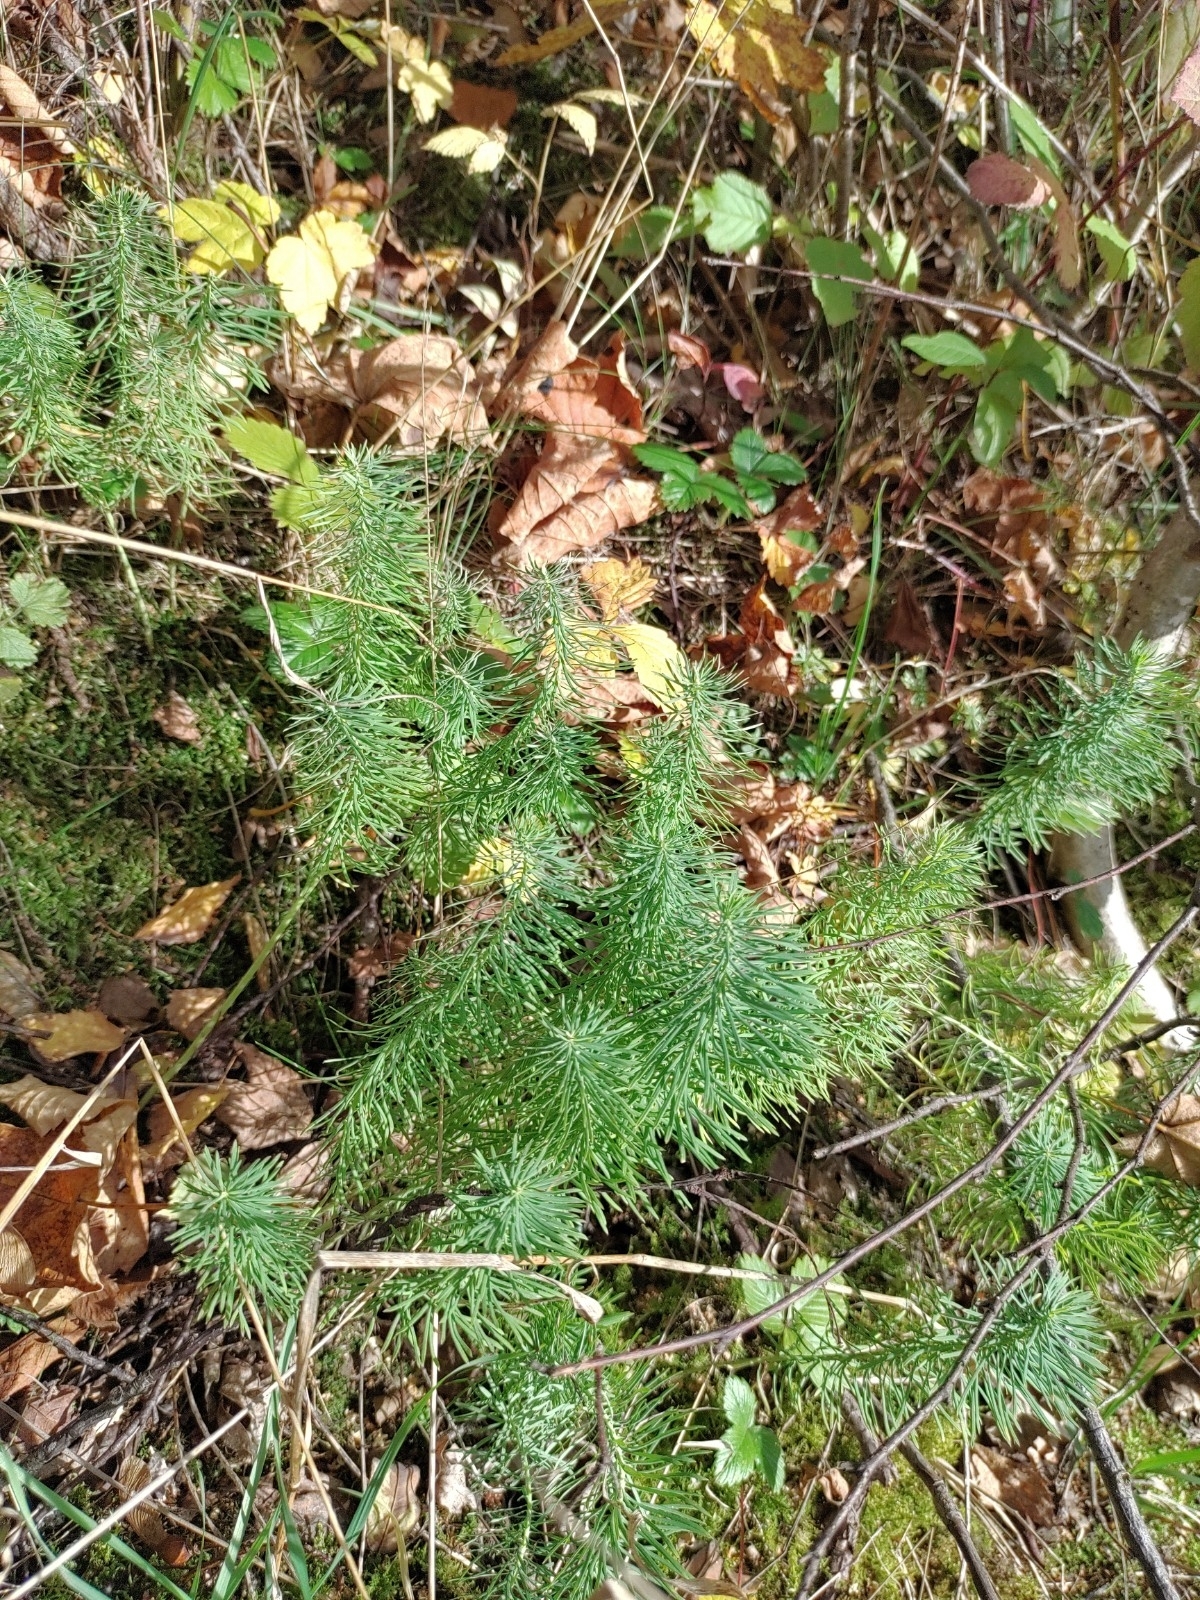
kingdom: Plantae
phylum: Tracheophyta
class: Magnoliopsida
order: Malpighiales
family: Euphorbiaceae
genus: Euphorbia
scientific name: Euphorbia cyparissias
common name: Cypress spurge
